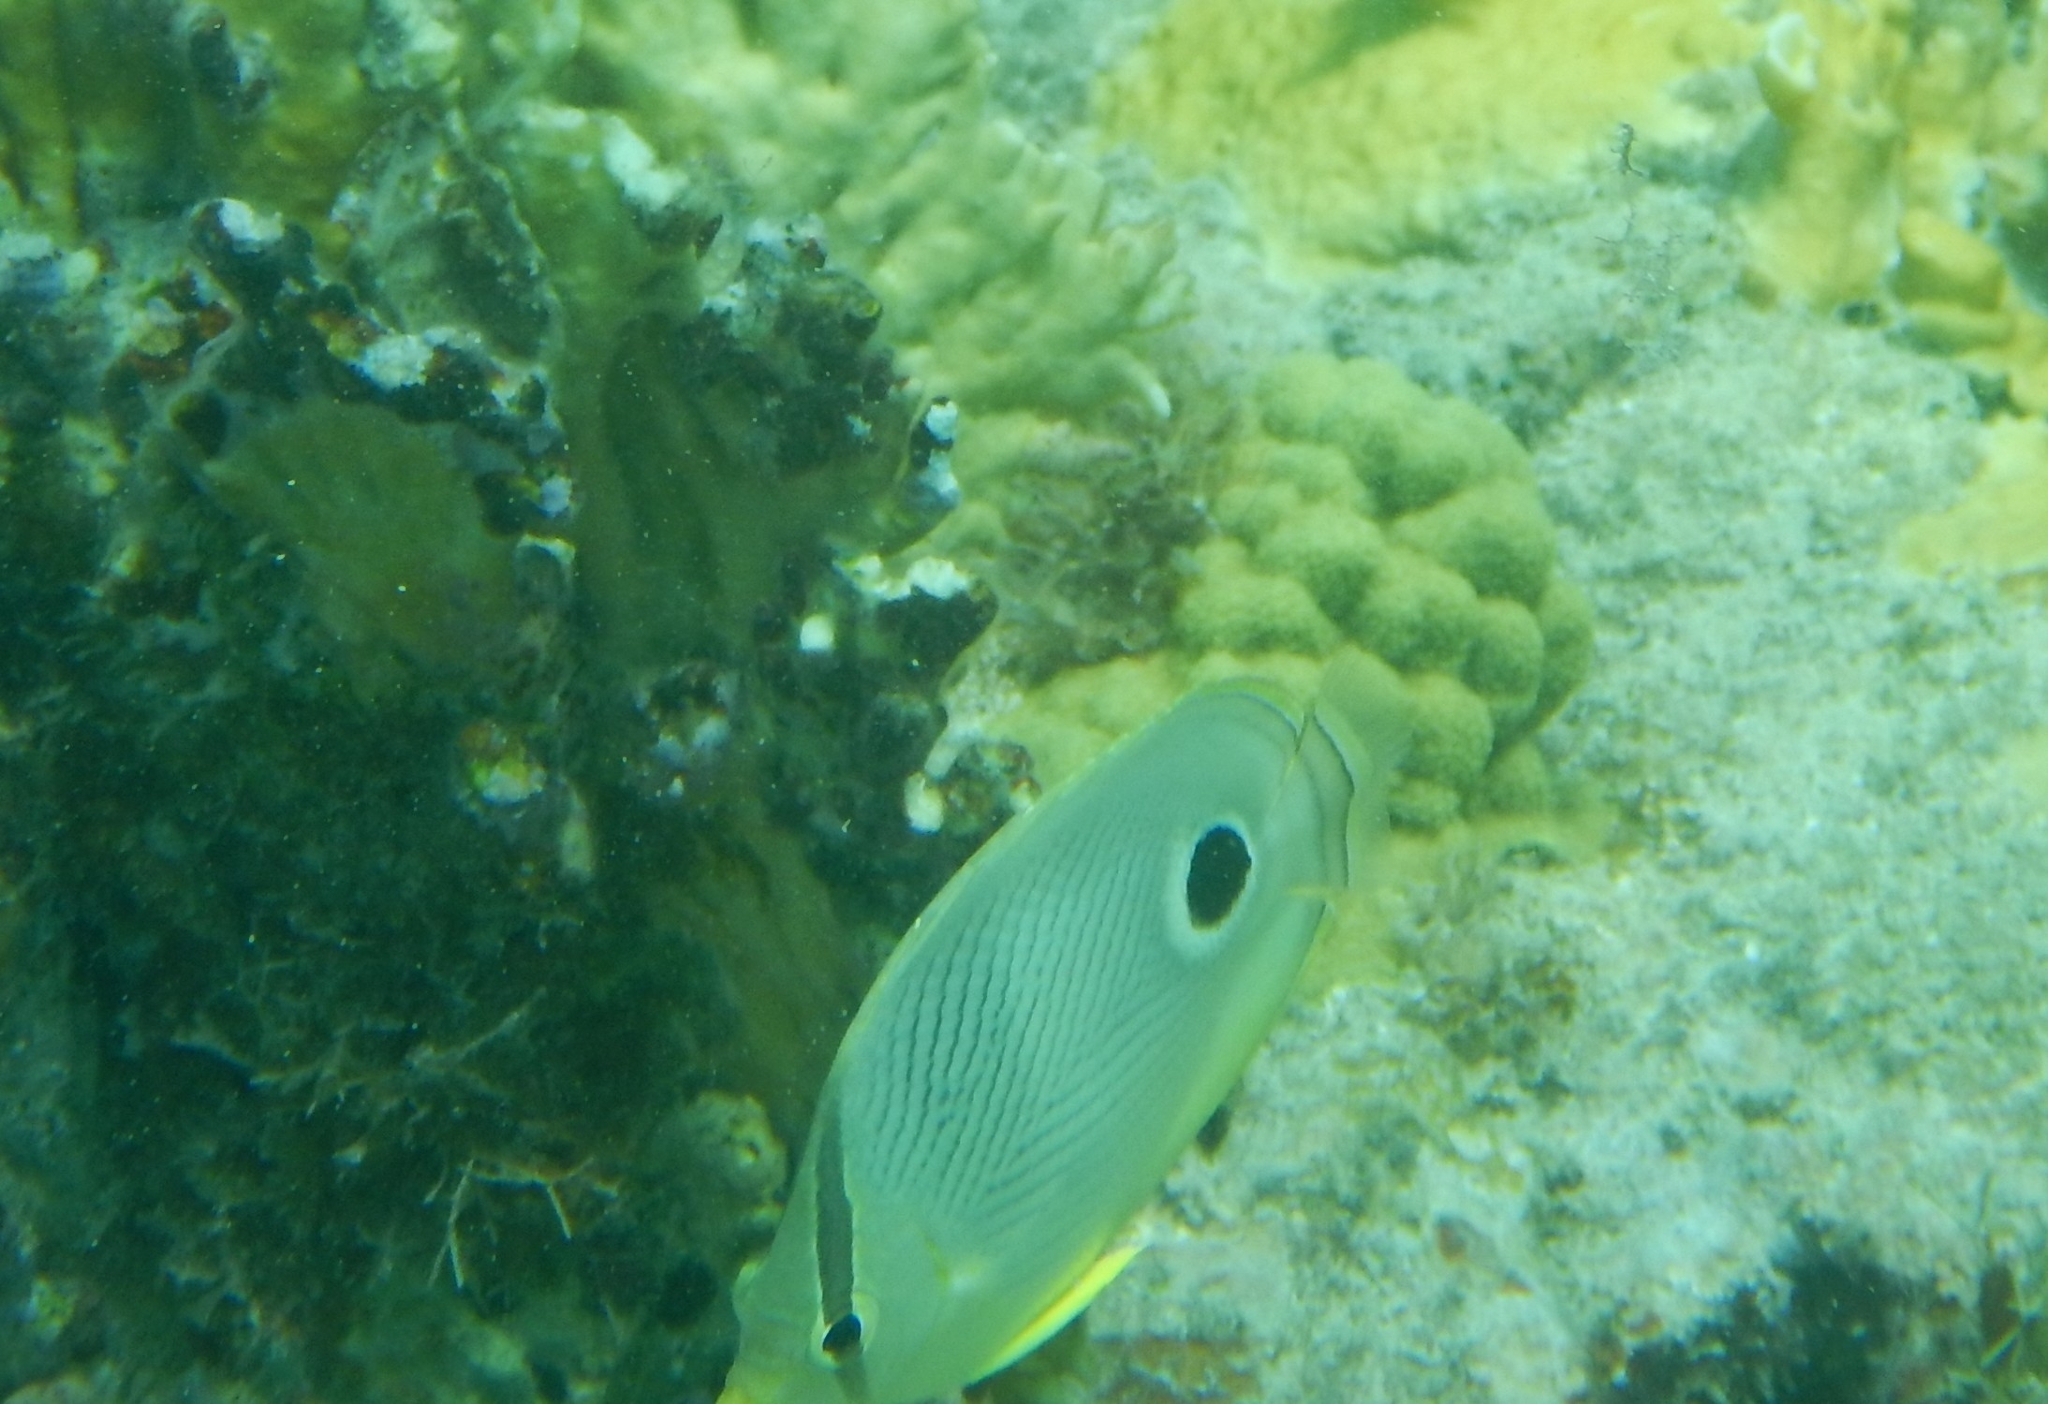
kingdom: Animalia
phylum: Chordata
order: Perciformes
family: Chaetodontidae
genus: Chaetodon
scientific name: Chaetodon capistratus
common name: Kete
